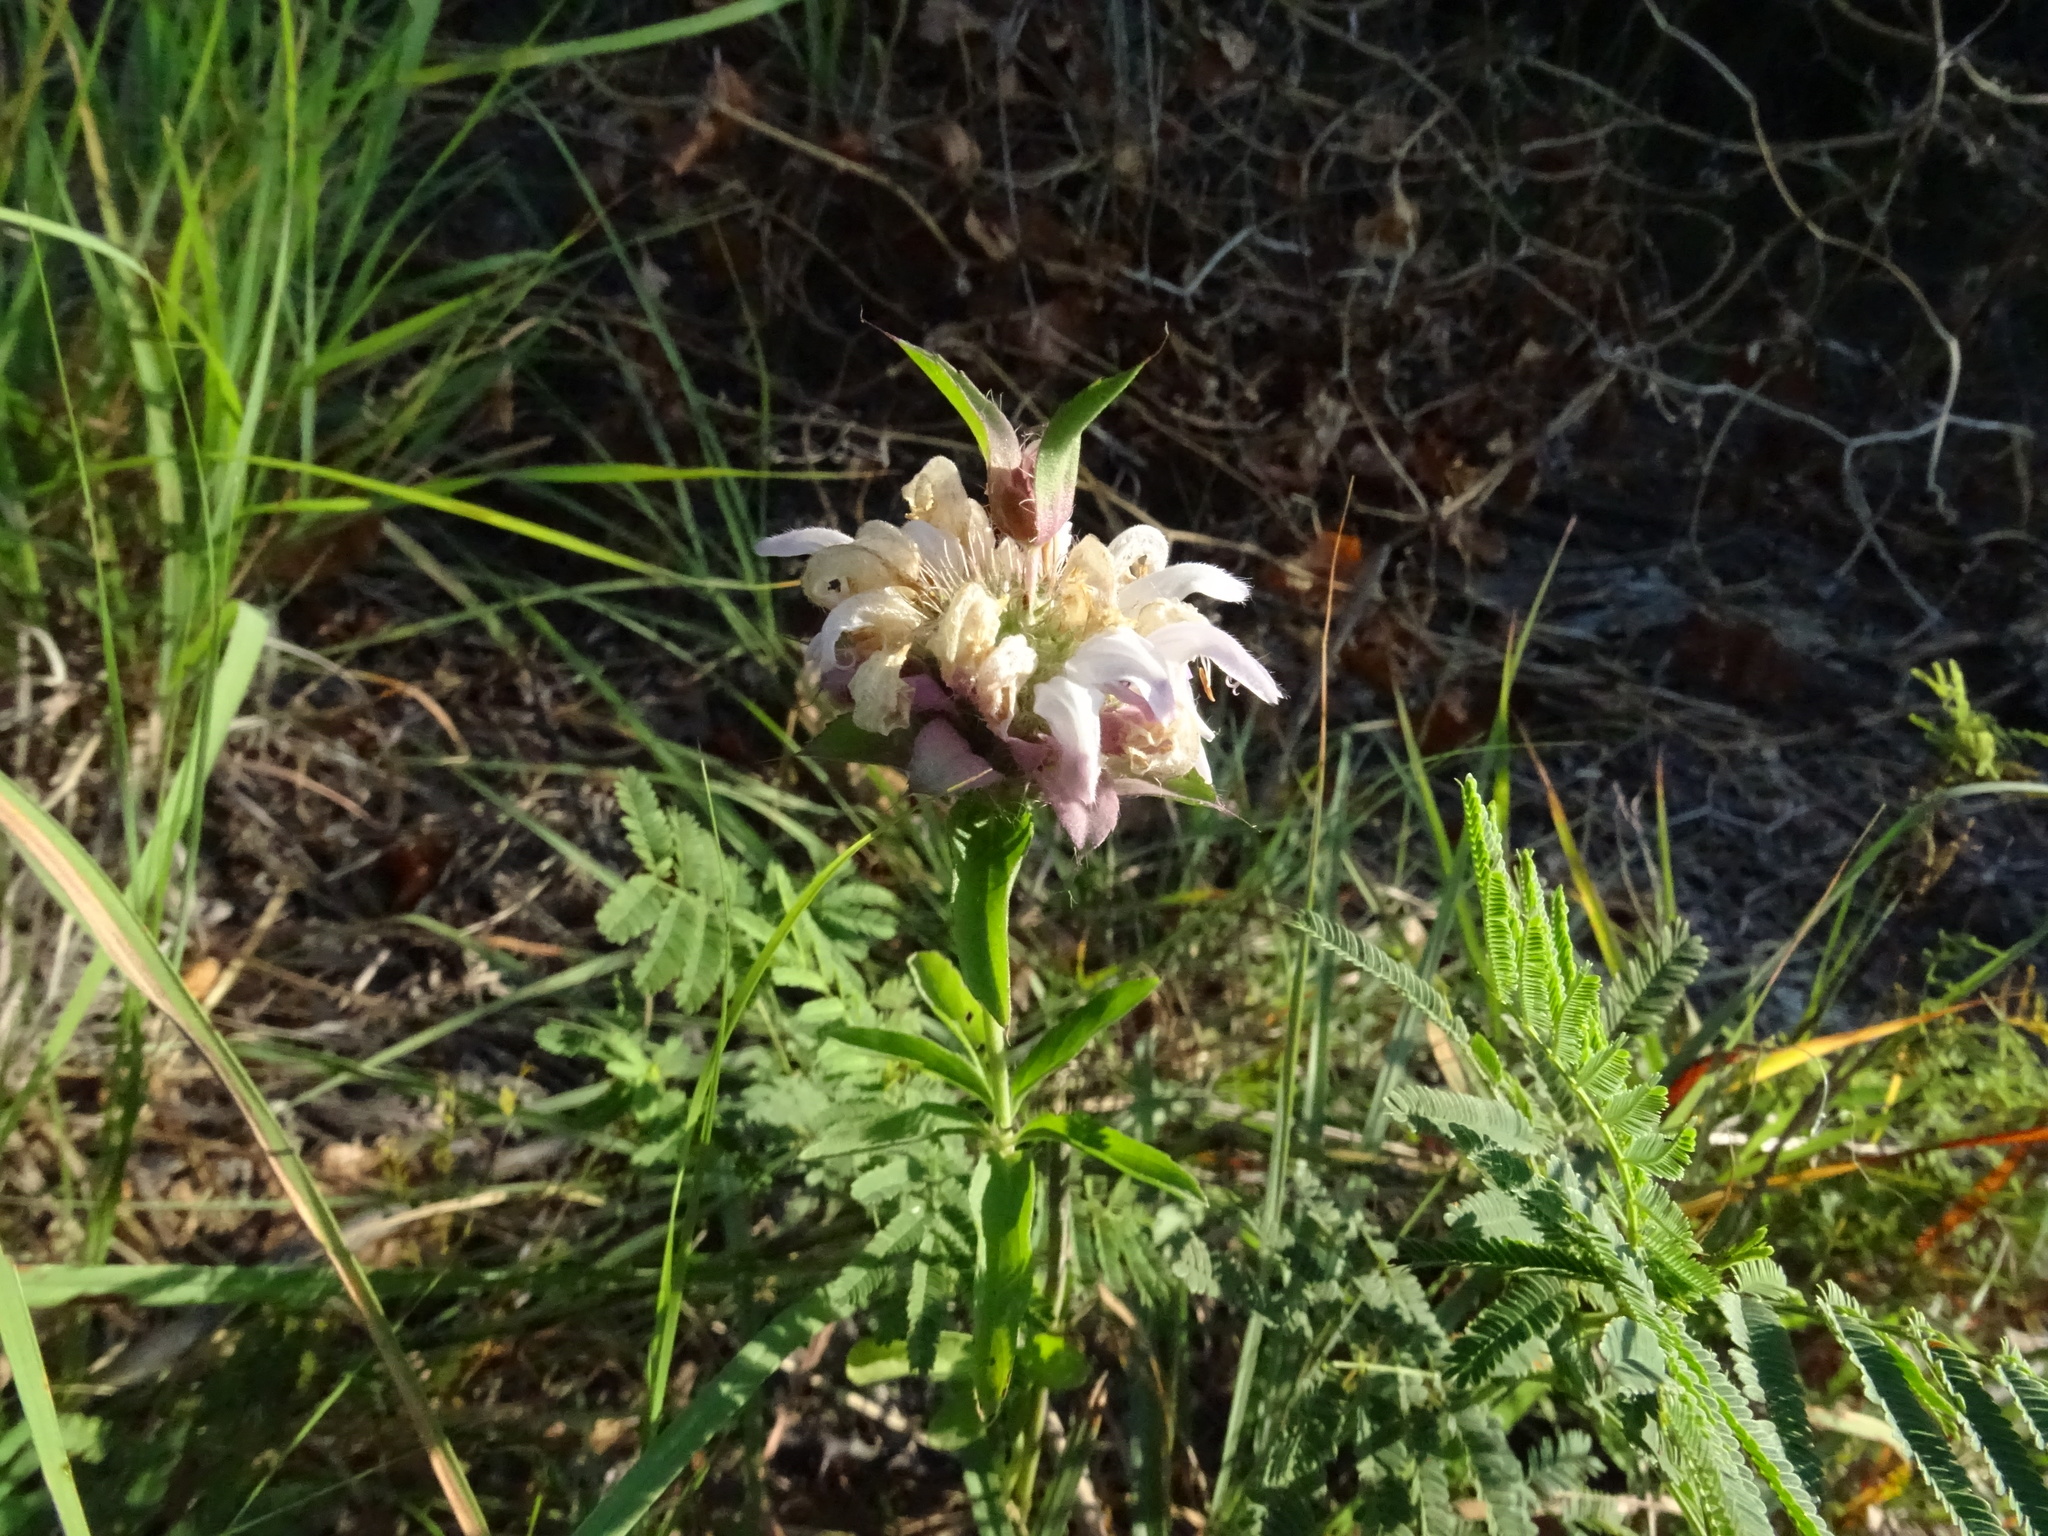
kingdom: Plantae
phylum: Tracheophyta
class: Magnoliopsida
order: Lamiales
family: Lamiaceae
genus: Monarda
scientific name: Monarda citriodora
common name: Lemon beebalm
